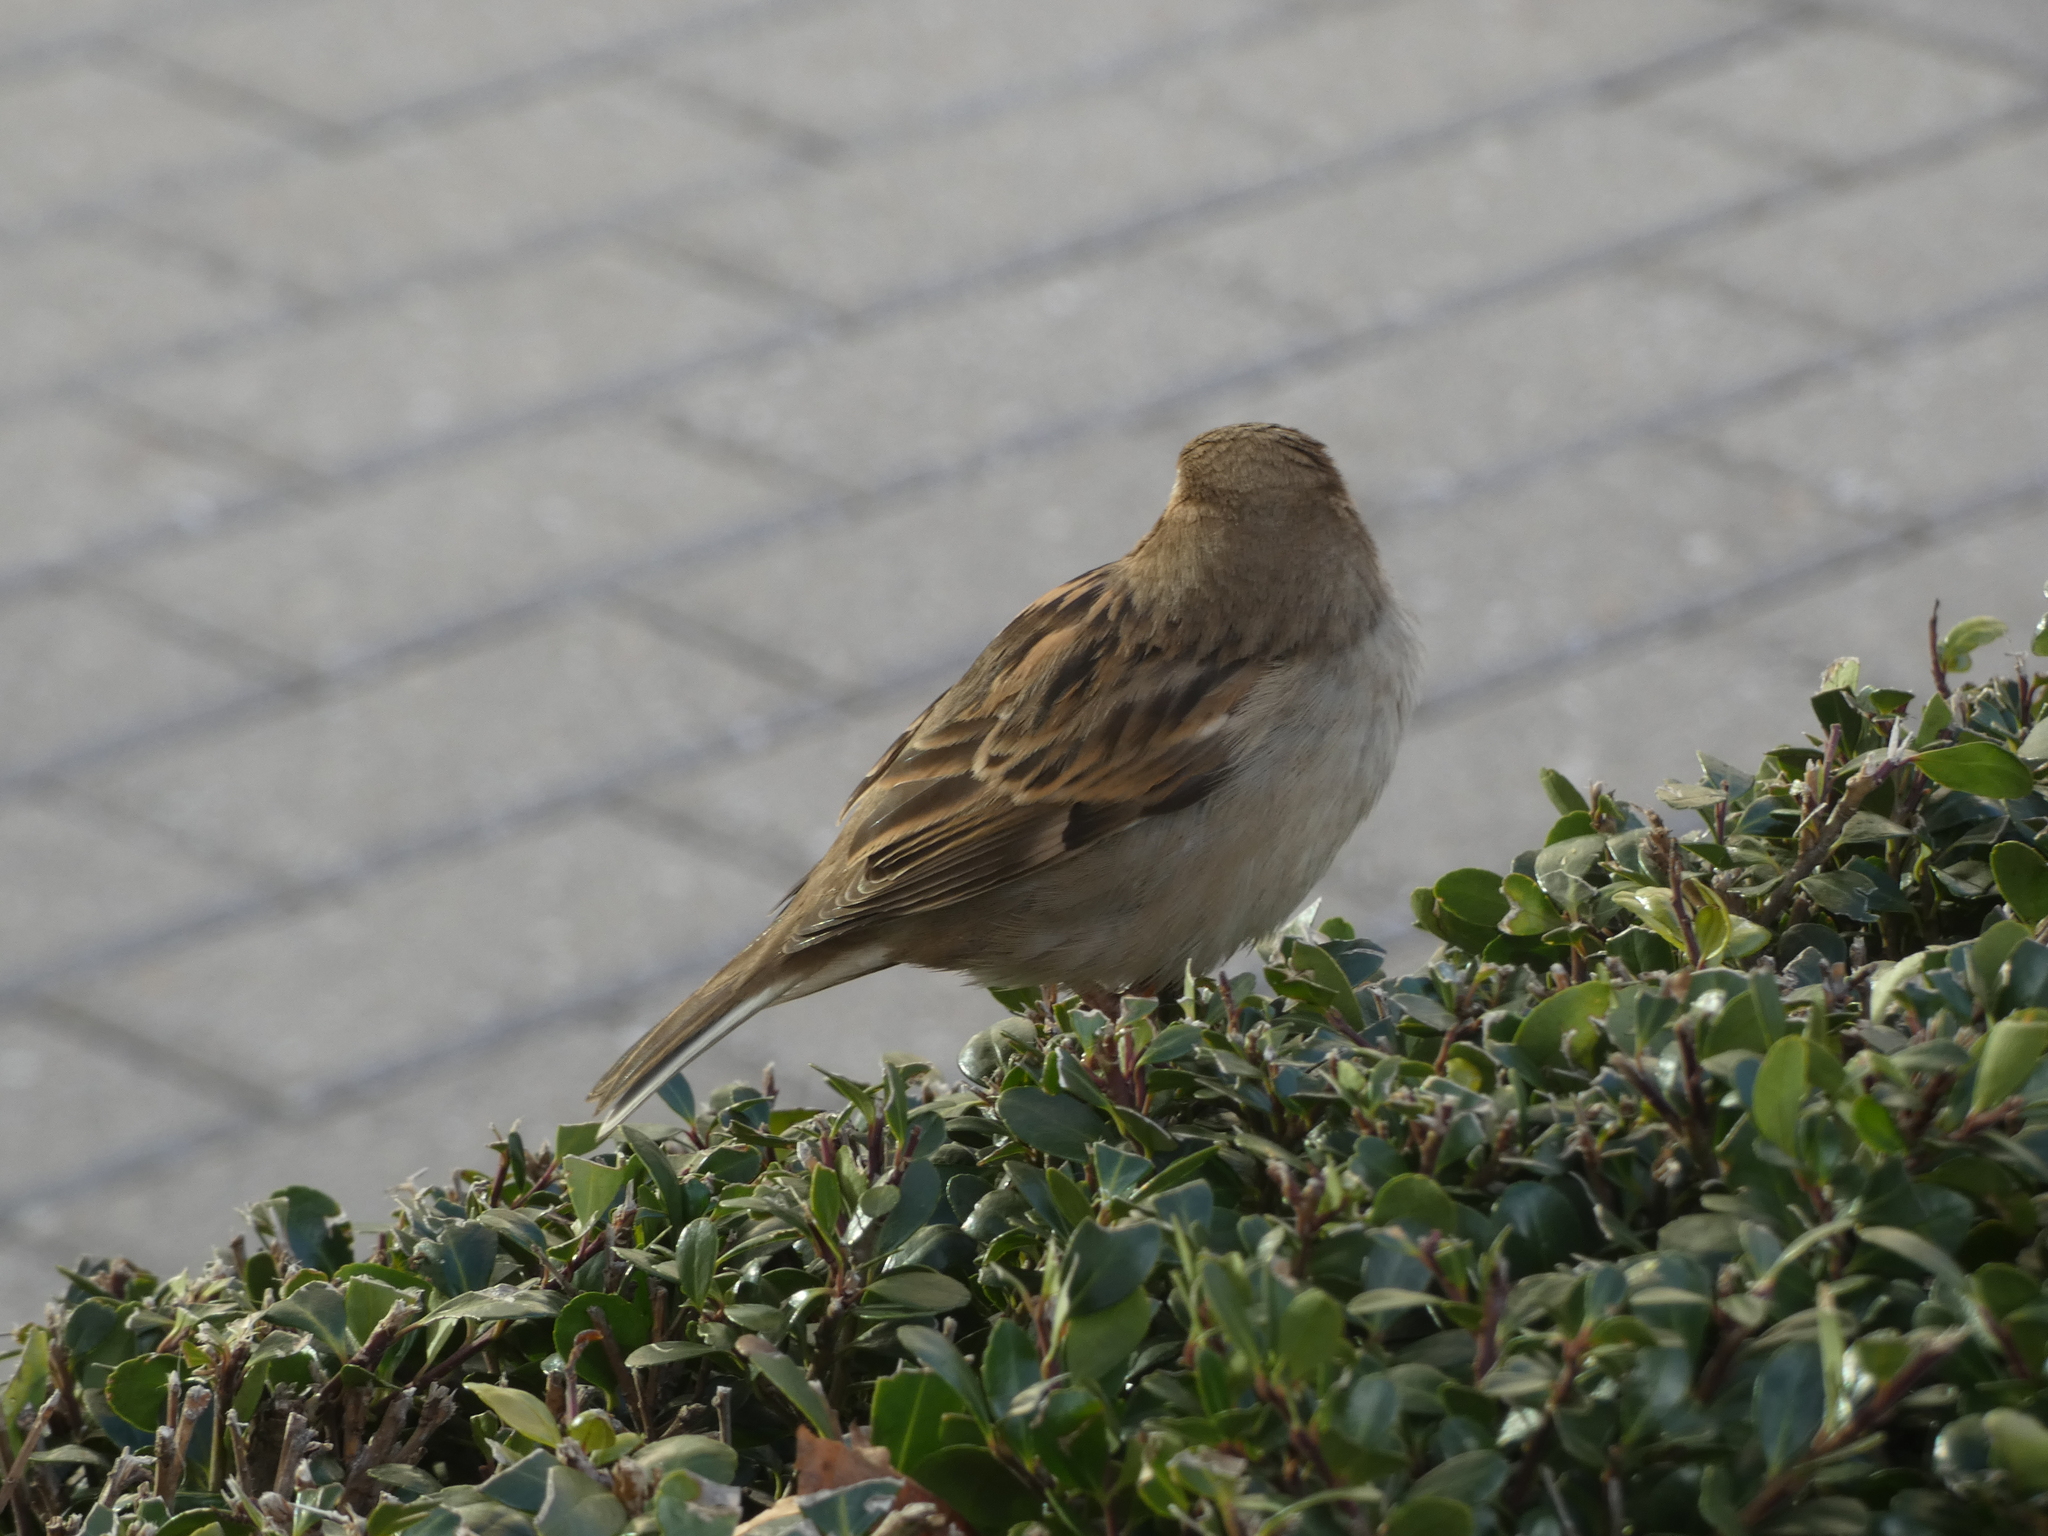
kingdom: Animalia
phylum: Chordata
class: Aves
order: Passeriformes
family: Passeridae
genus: Passer
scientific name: Passer domesticus
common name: House sparrow
